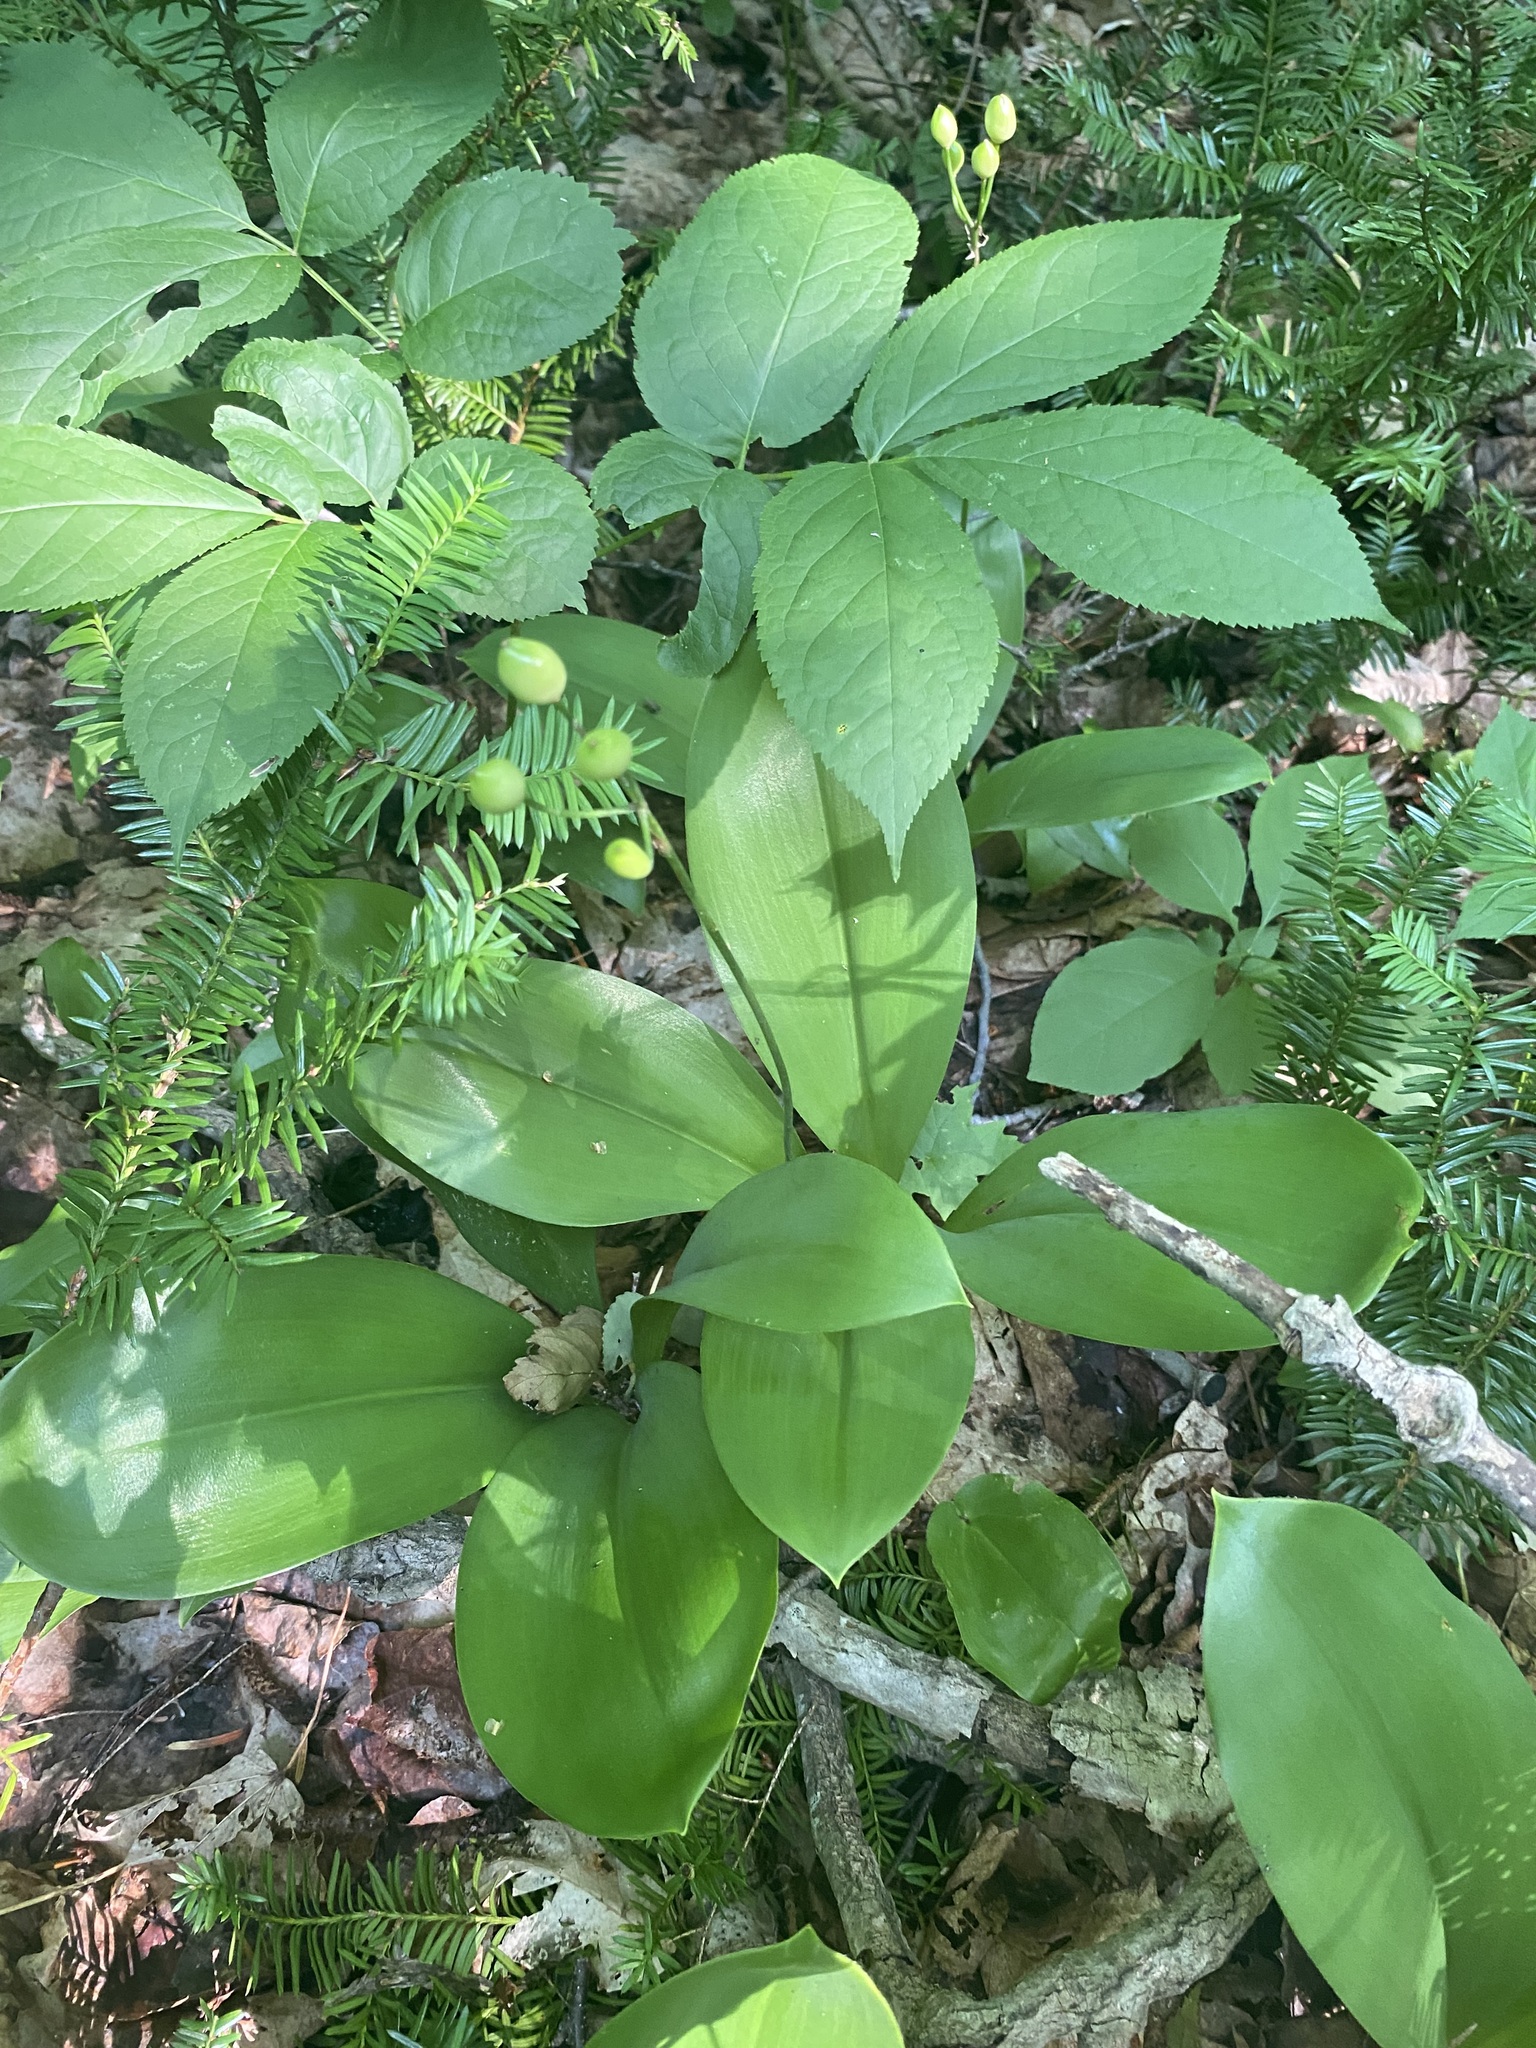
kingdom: Plantae
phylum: Tracheophyta
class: Liliopsida
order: Liliales
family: Liliaceae
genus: Clintonia
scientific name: Clintonia borealis
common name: Yellow clintonia
